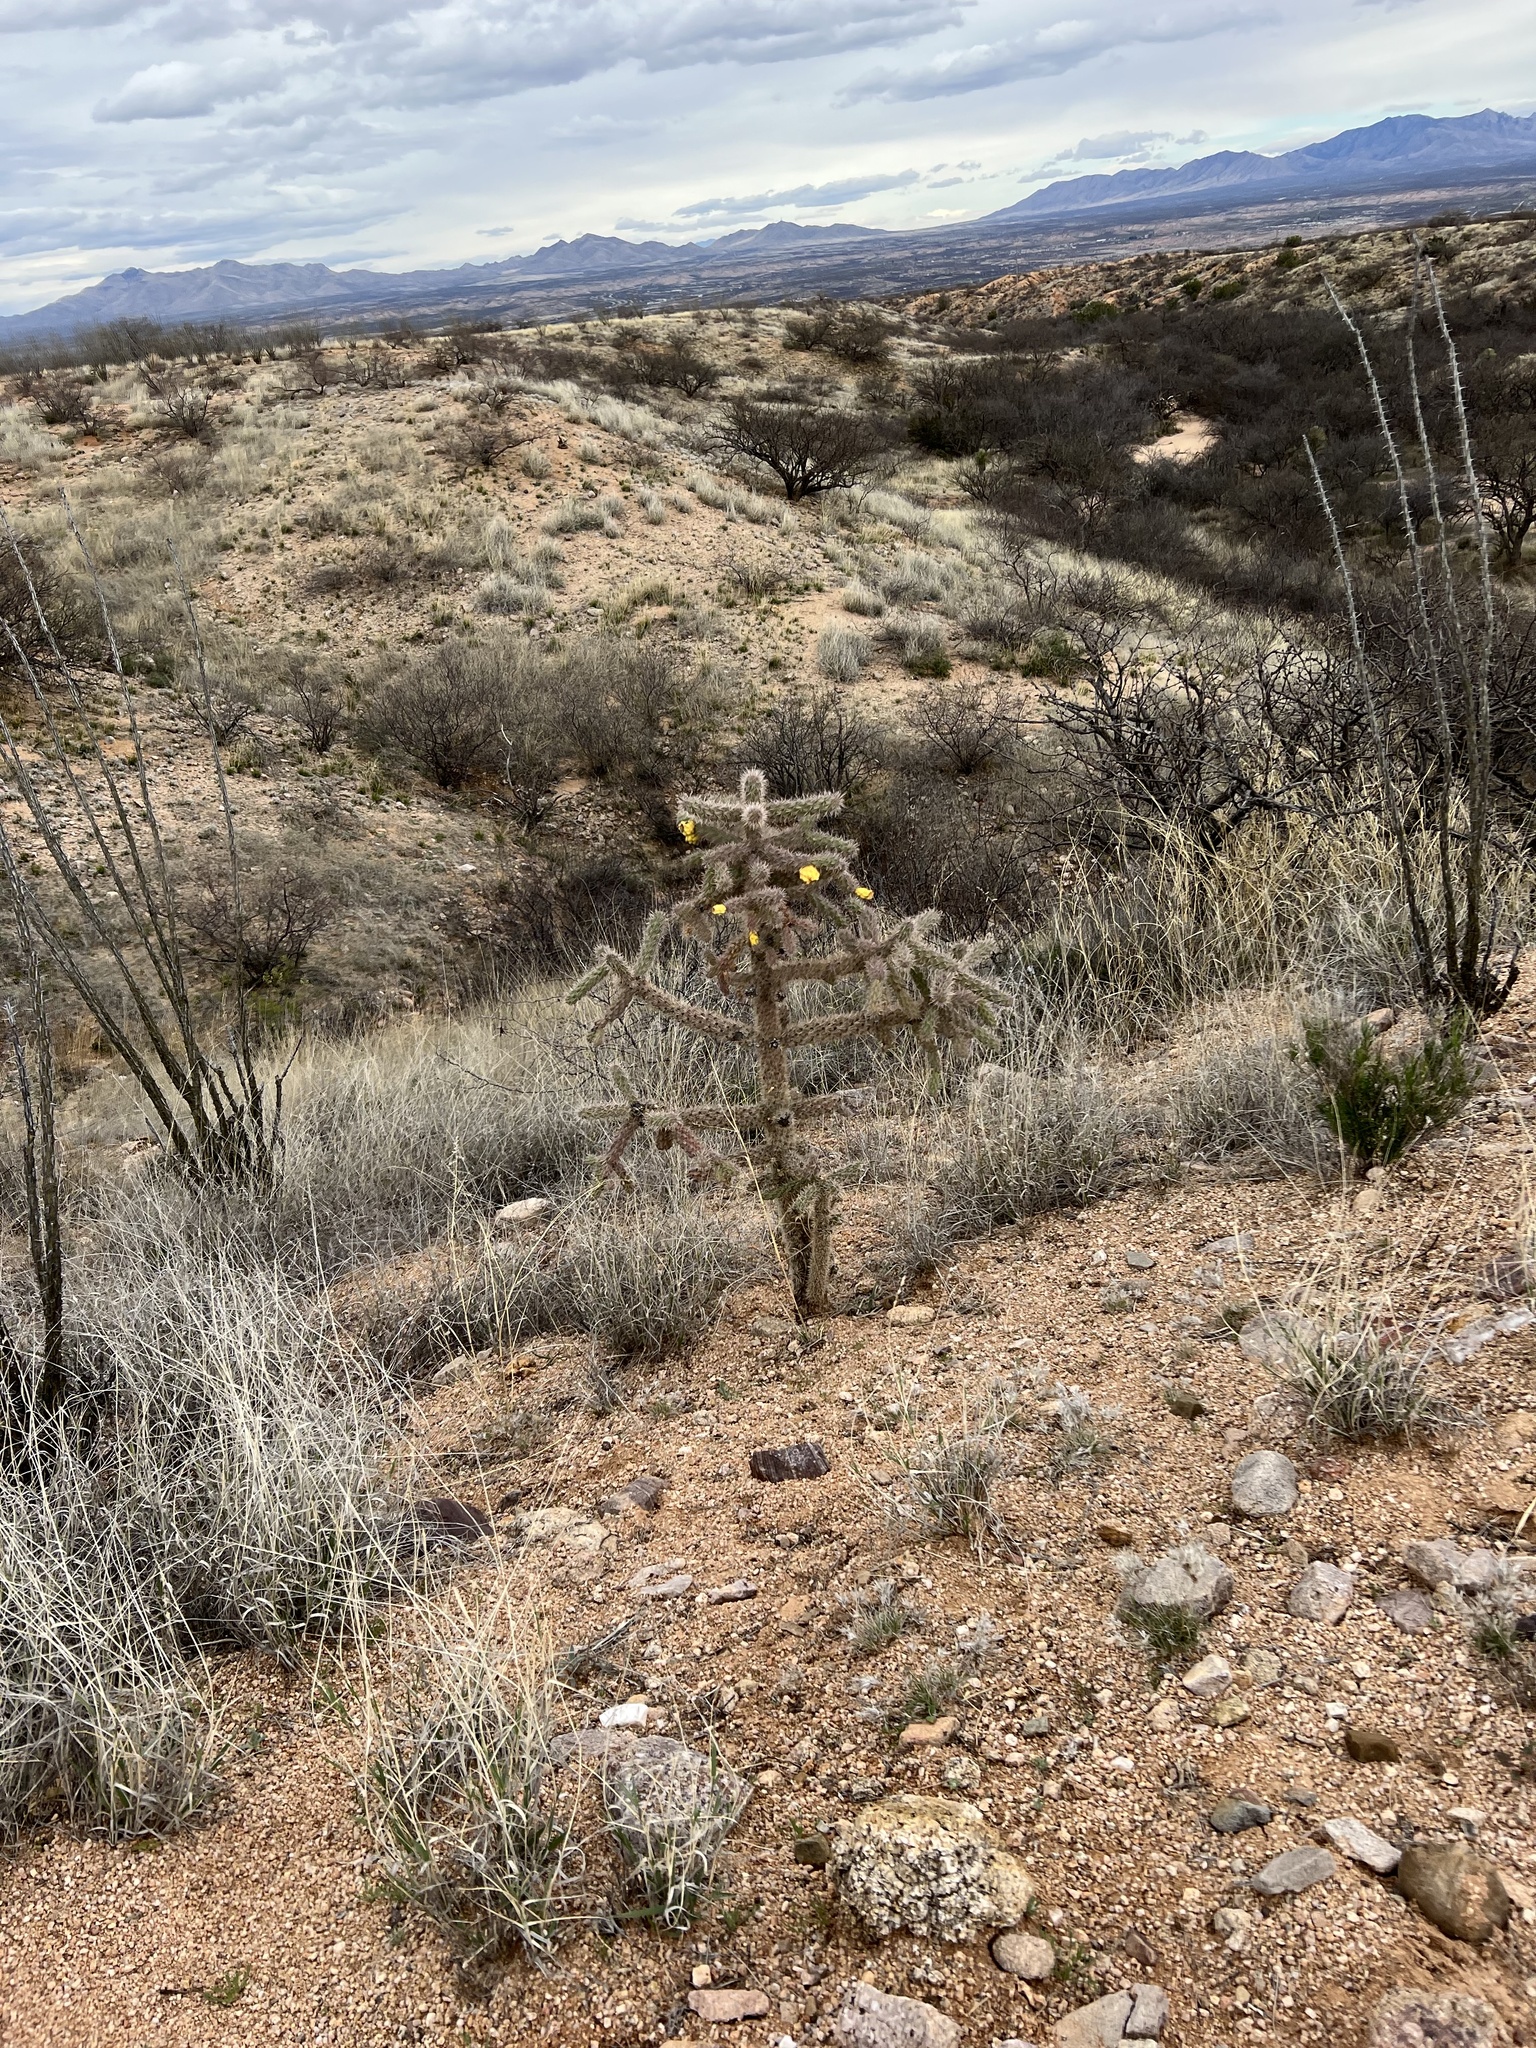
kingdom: Plantae
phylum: Tracheophyta
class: Magnoliopsida
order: Caryophyllales
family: Cactaceae
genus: Cylindropuntia
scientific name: Cylindropuntia imbricata
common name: Candelabrum cactus
